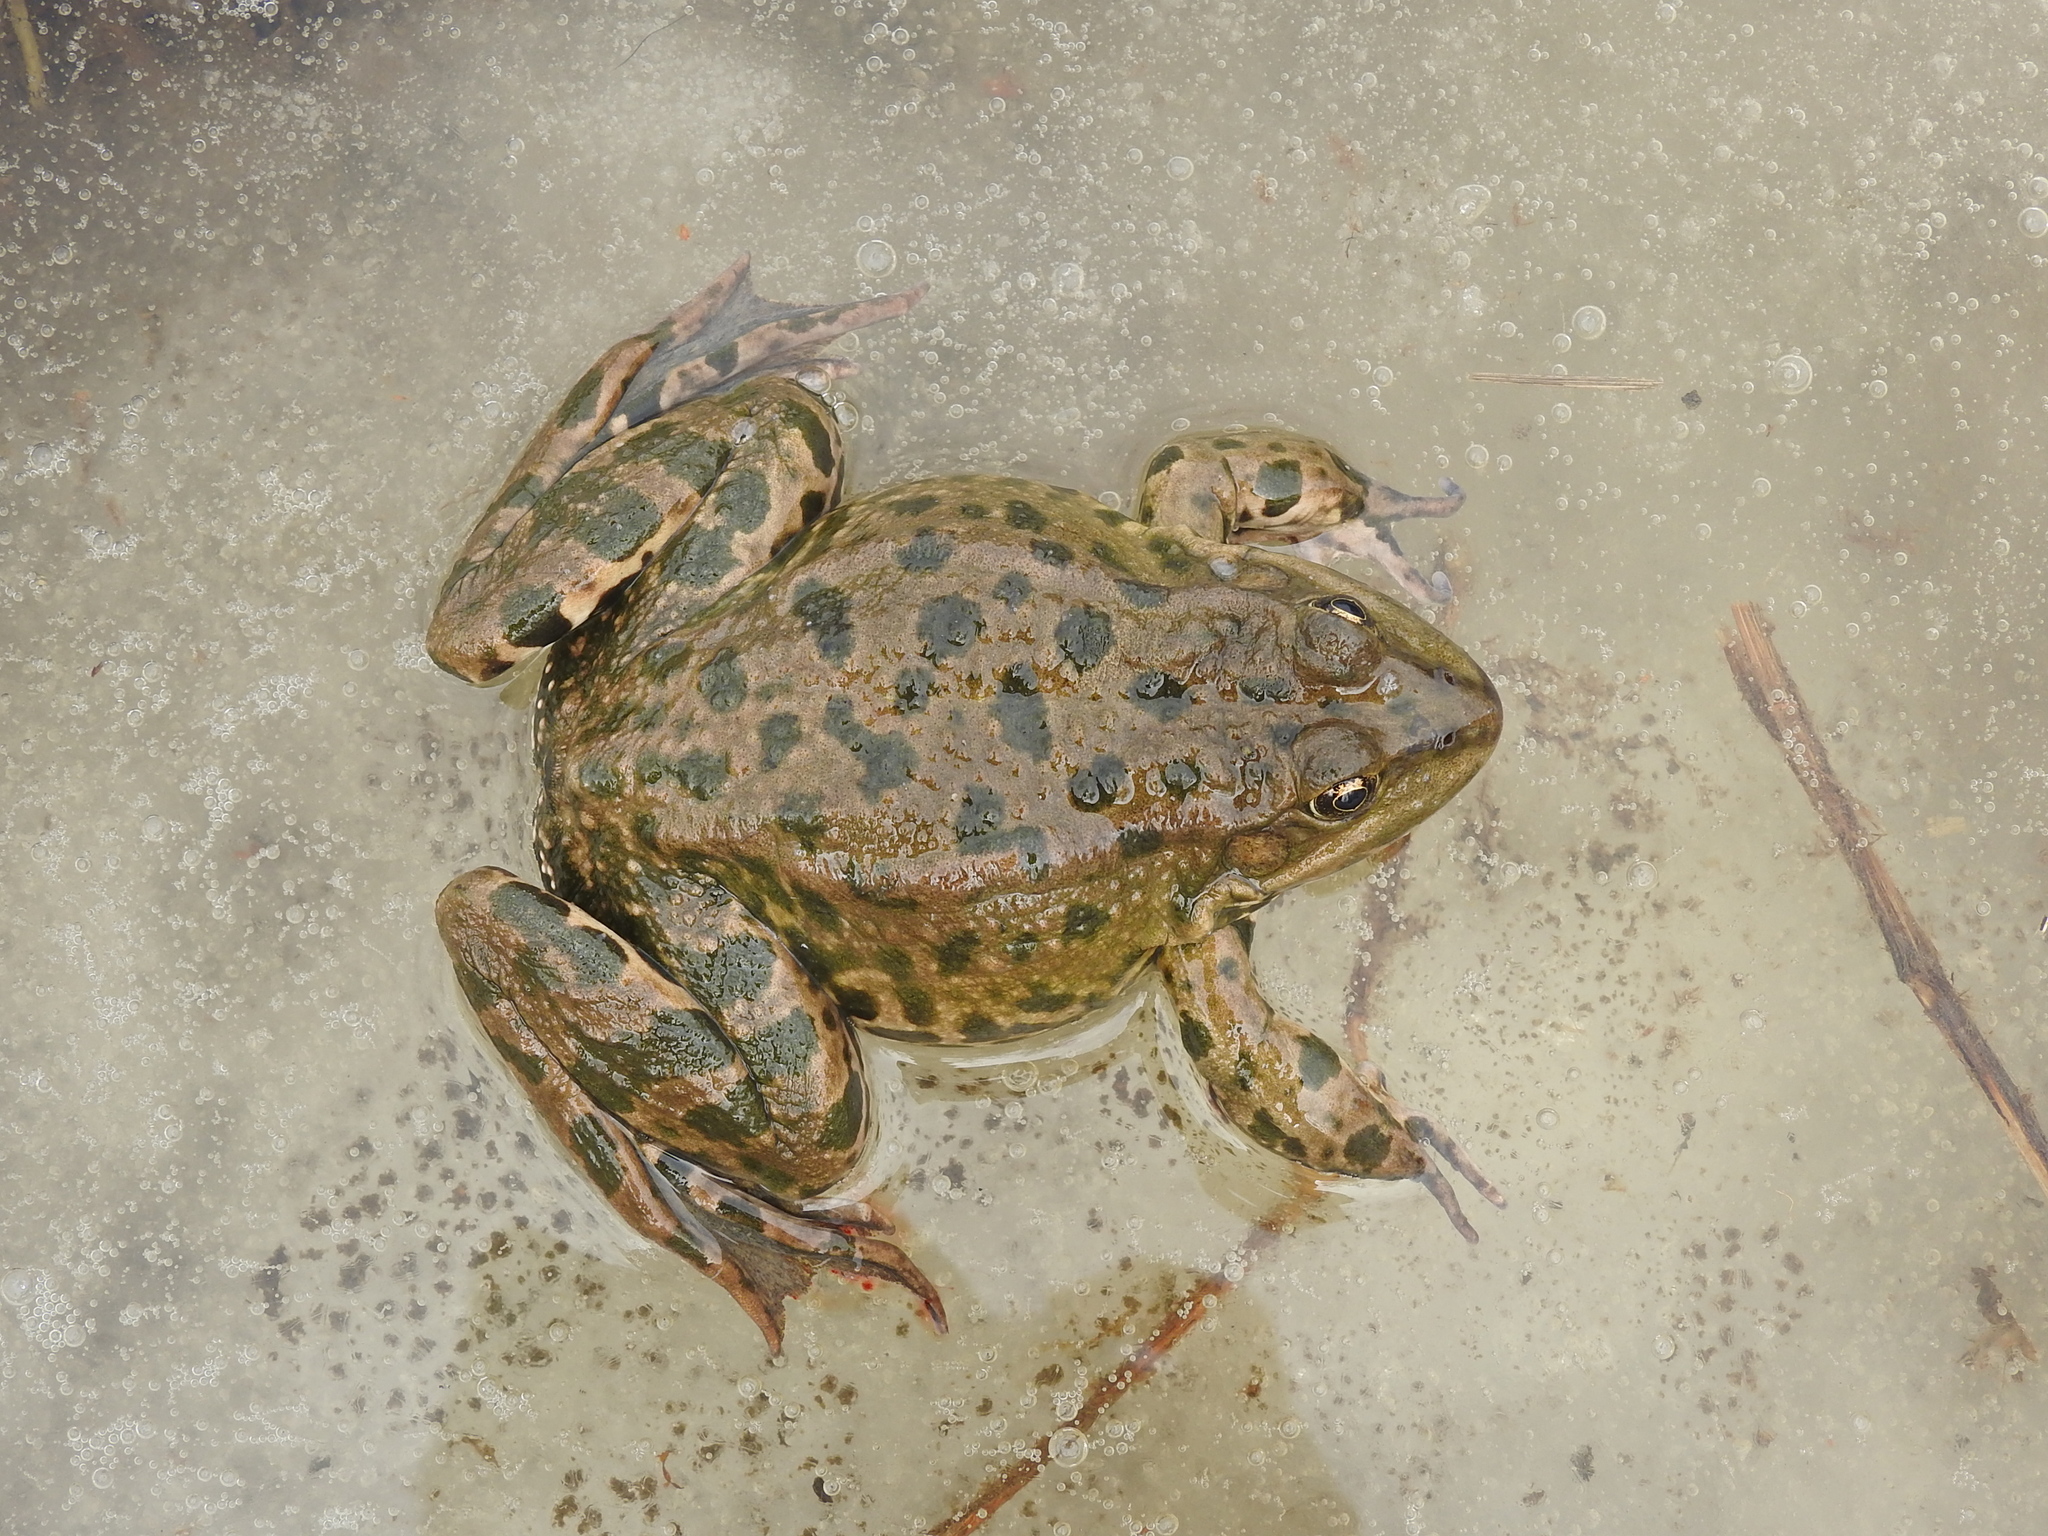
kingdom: Animalia
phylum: Chordata
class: Amphibia
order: Anura
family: Ranidae
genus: Pelophylax
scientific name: Pelophylax ridibundus
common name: Marsh frog
